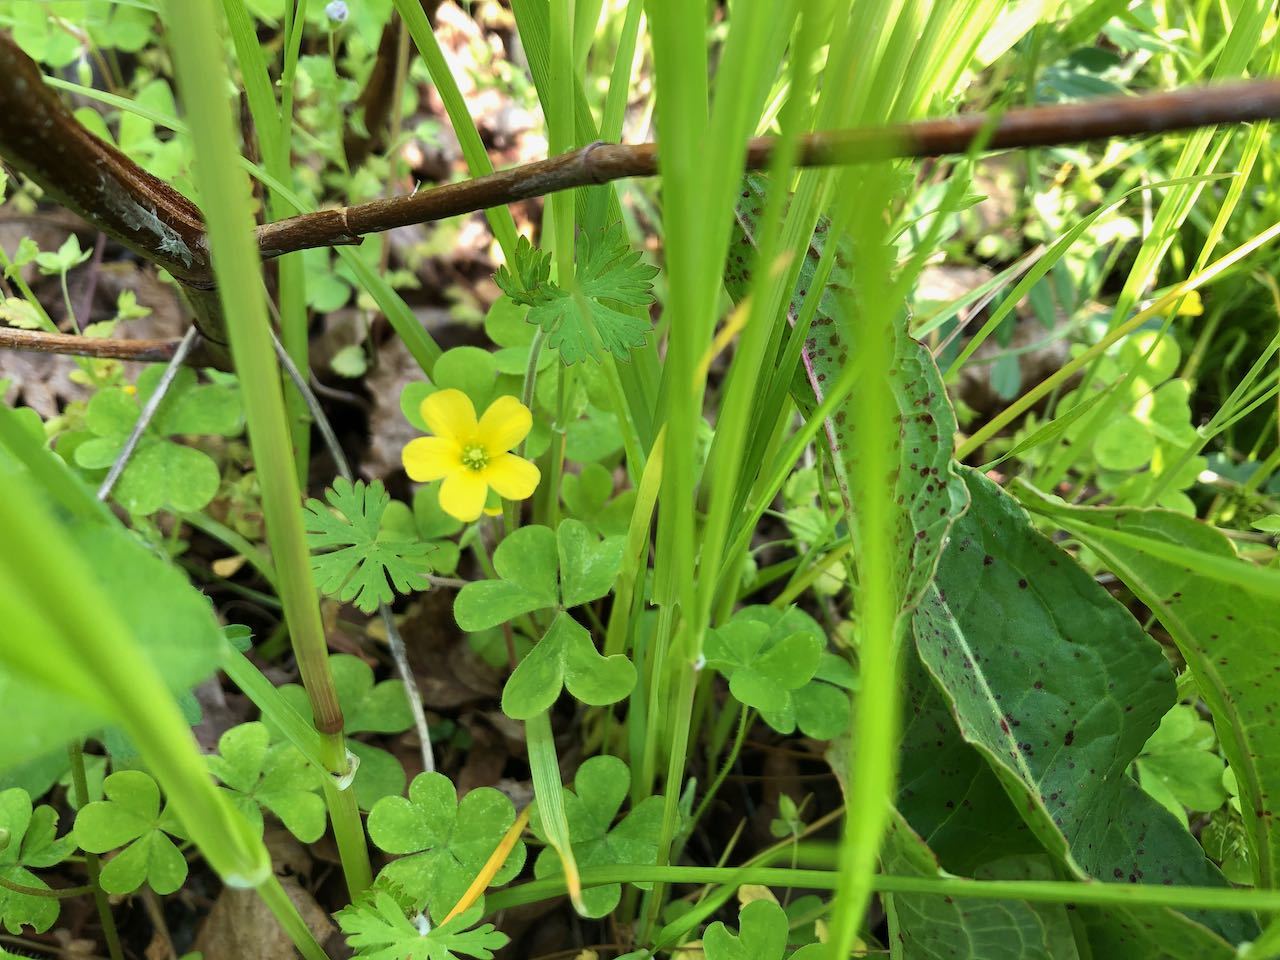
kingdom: Plantae
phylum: Tracheophyta
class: Magnoliopsida
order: Oxalidales
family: Oxalidaceae
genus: Oxalis
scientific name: Oxalis corniculata
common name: Procumbent yellow-sorrel
